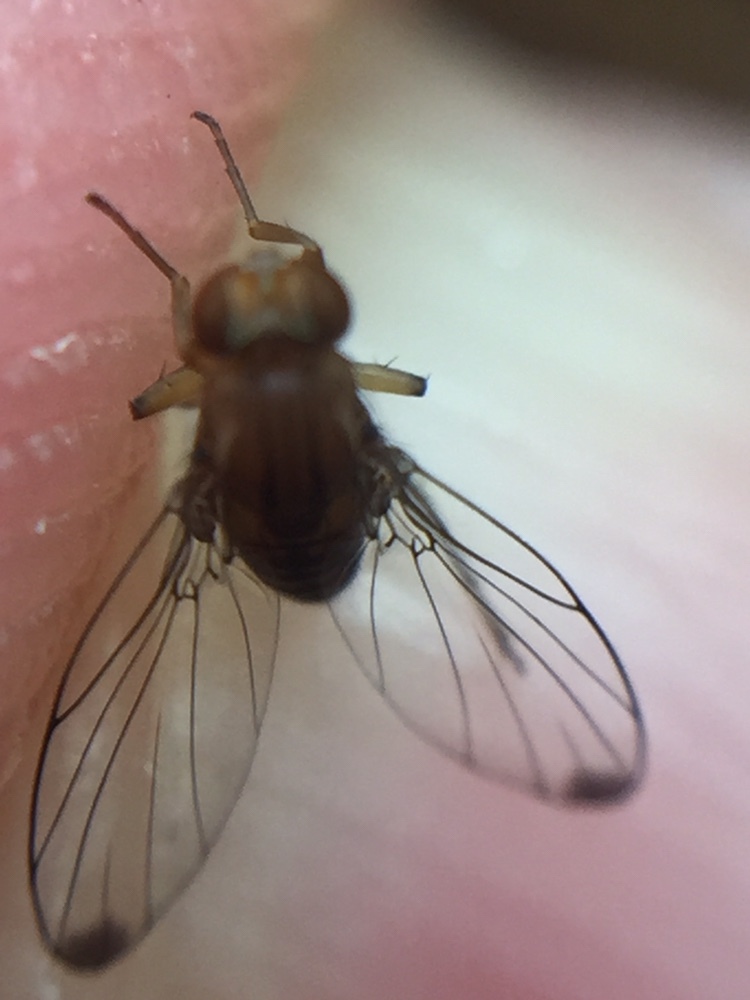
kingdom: Animalia
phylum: Arthropoda
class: Insecta
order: Diptera
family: Phoridae
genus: Sciadocera
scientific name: Sciadocera rufomaculata
